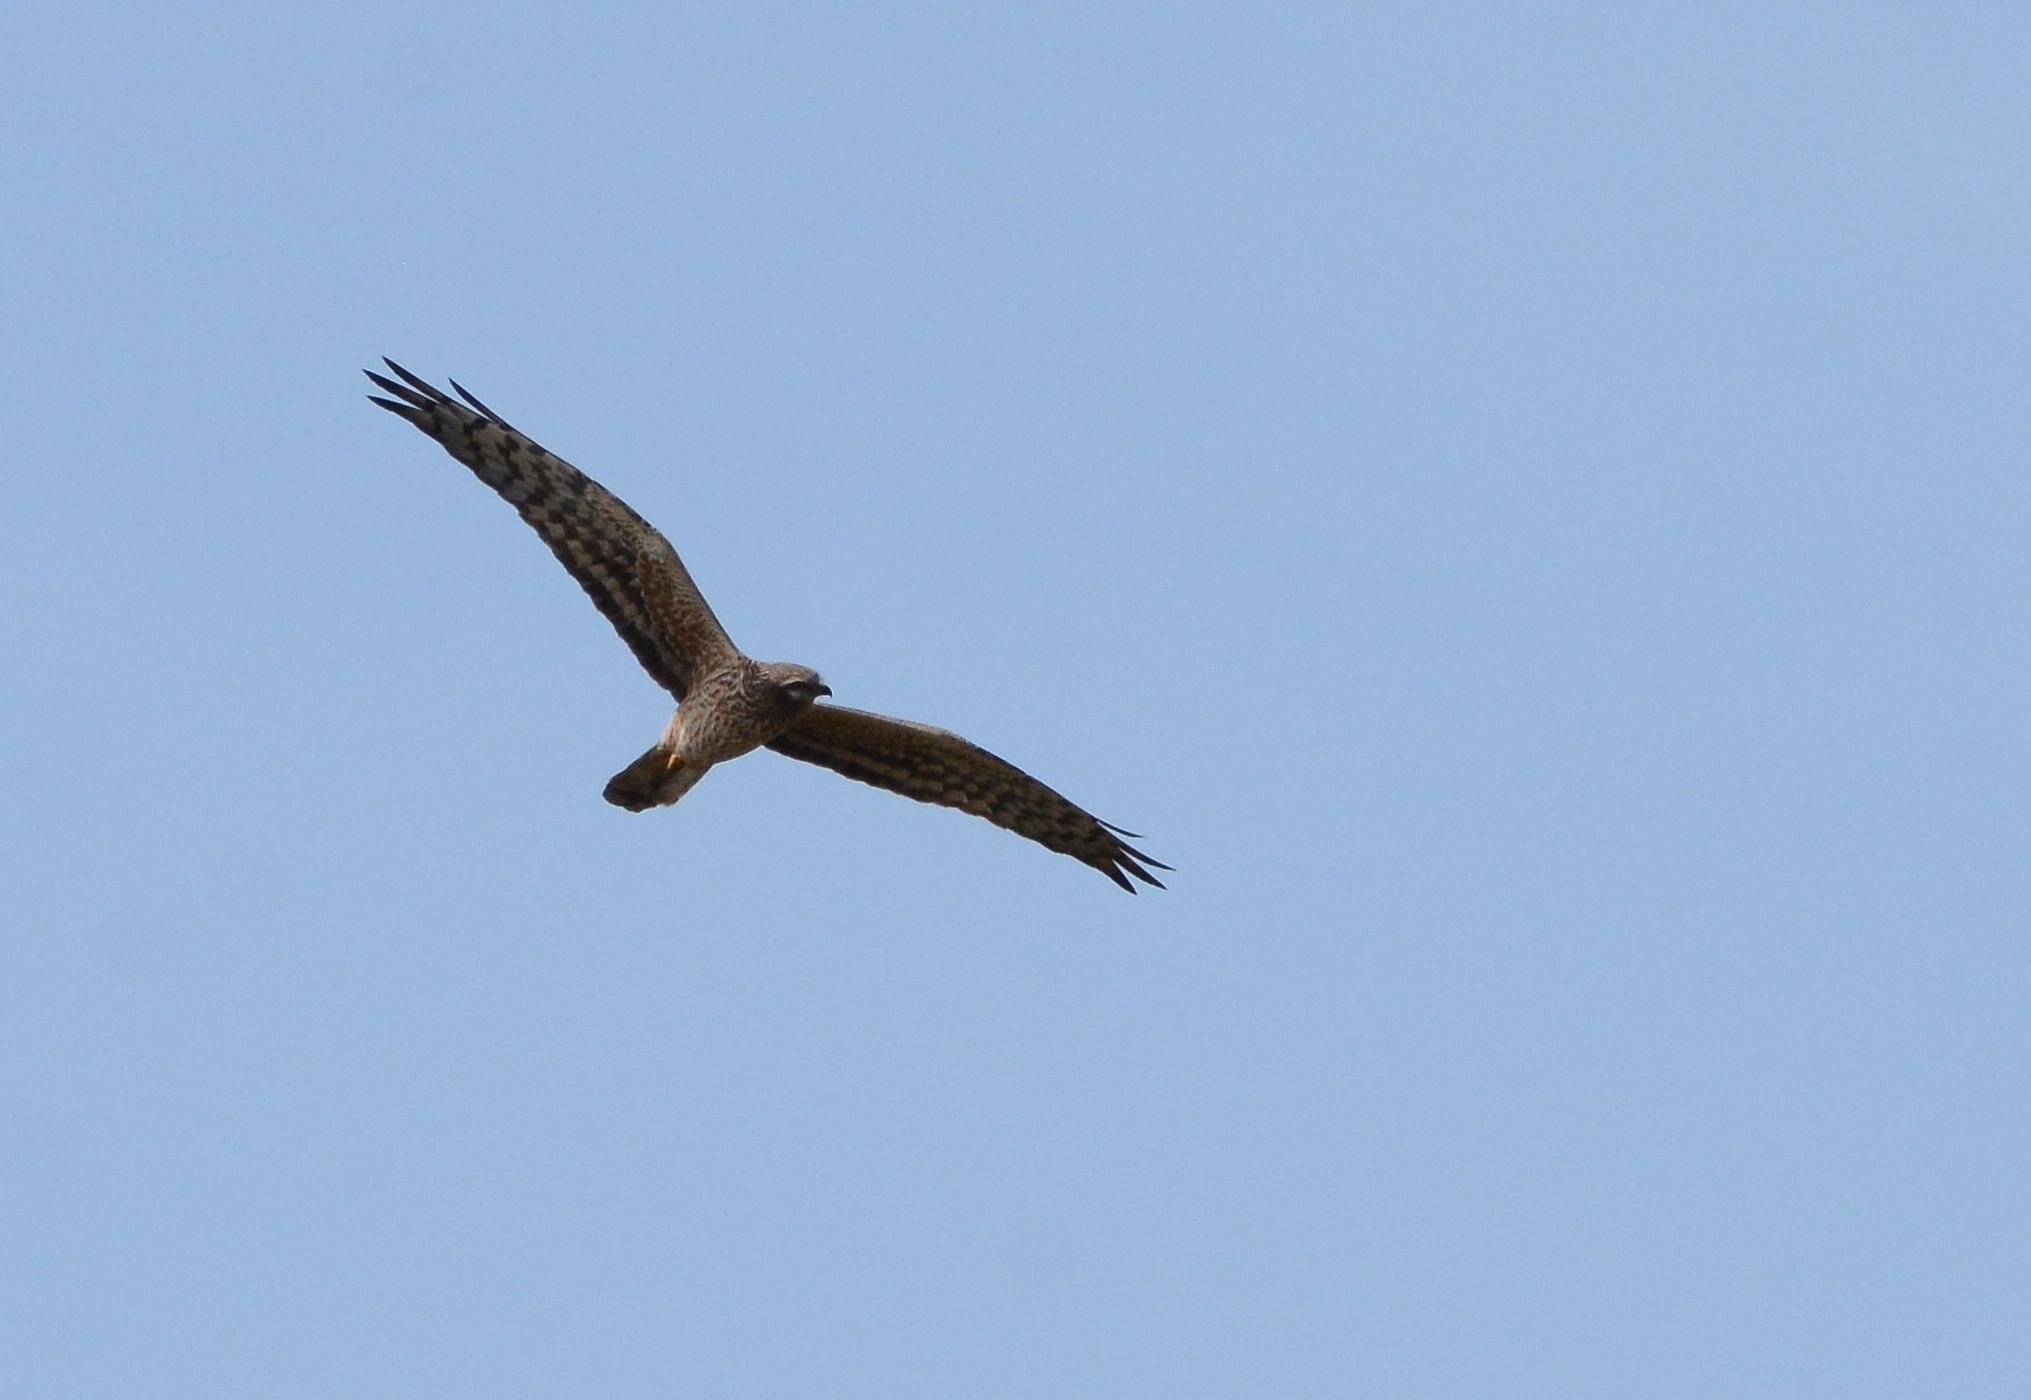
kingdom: Animalia
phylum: Chordata
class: Aves
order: Accipitriformes
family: Accipitridae
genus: Circus
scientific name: Circus pygargus
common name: Montagu's harrier
